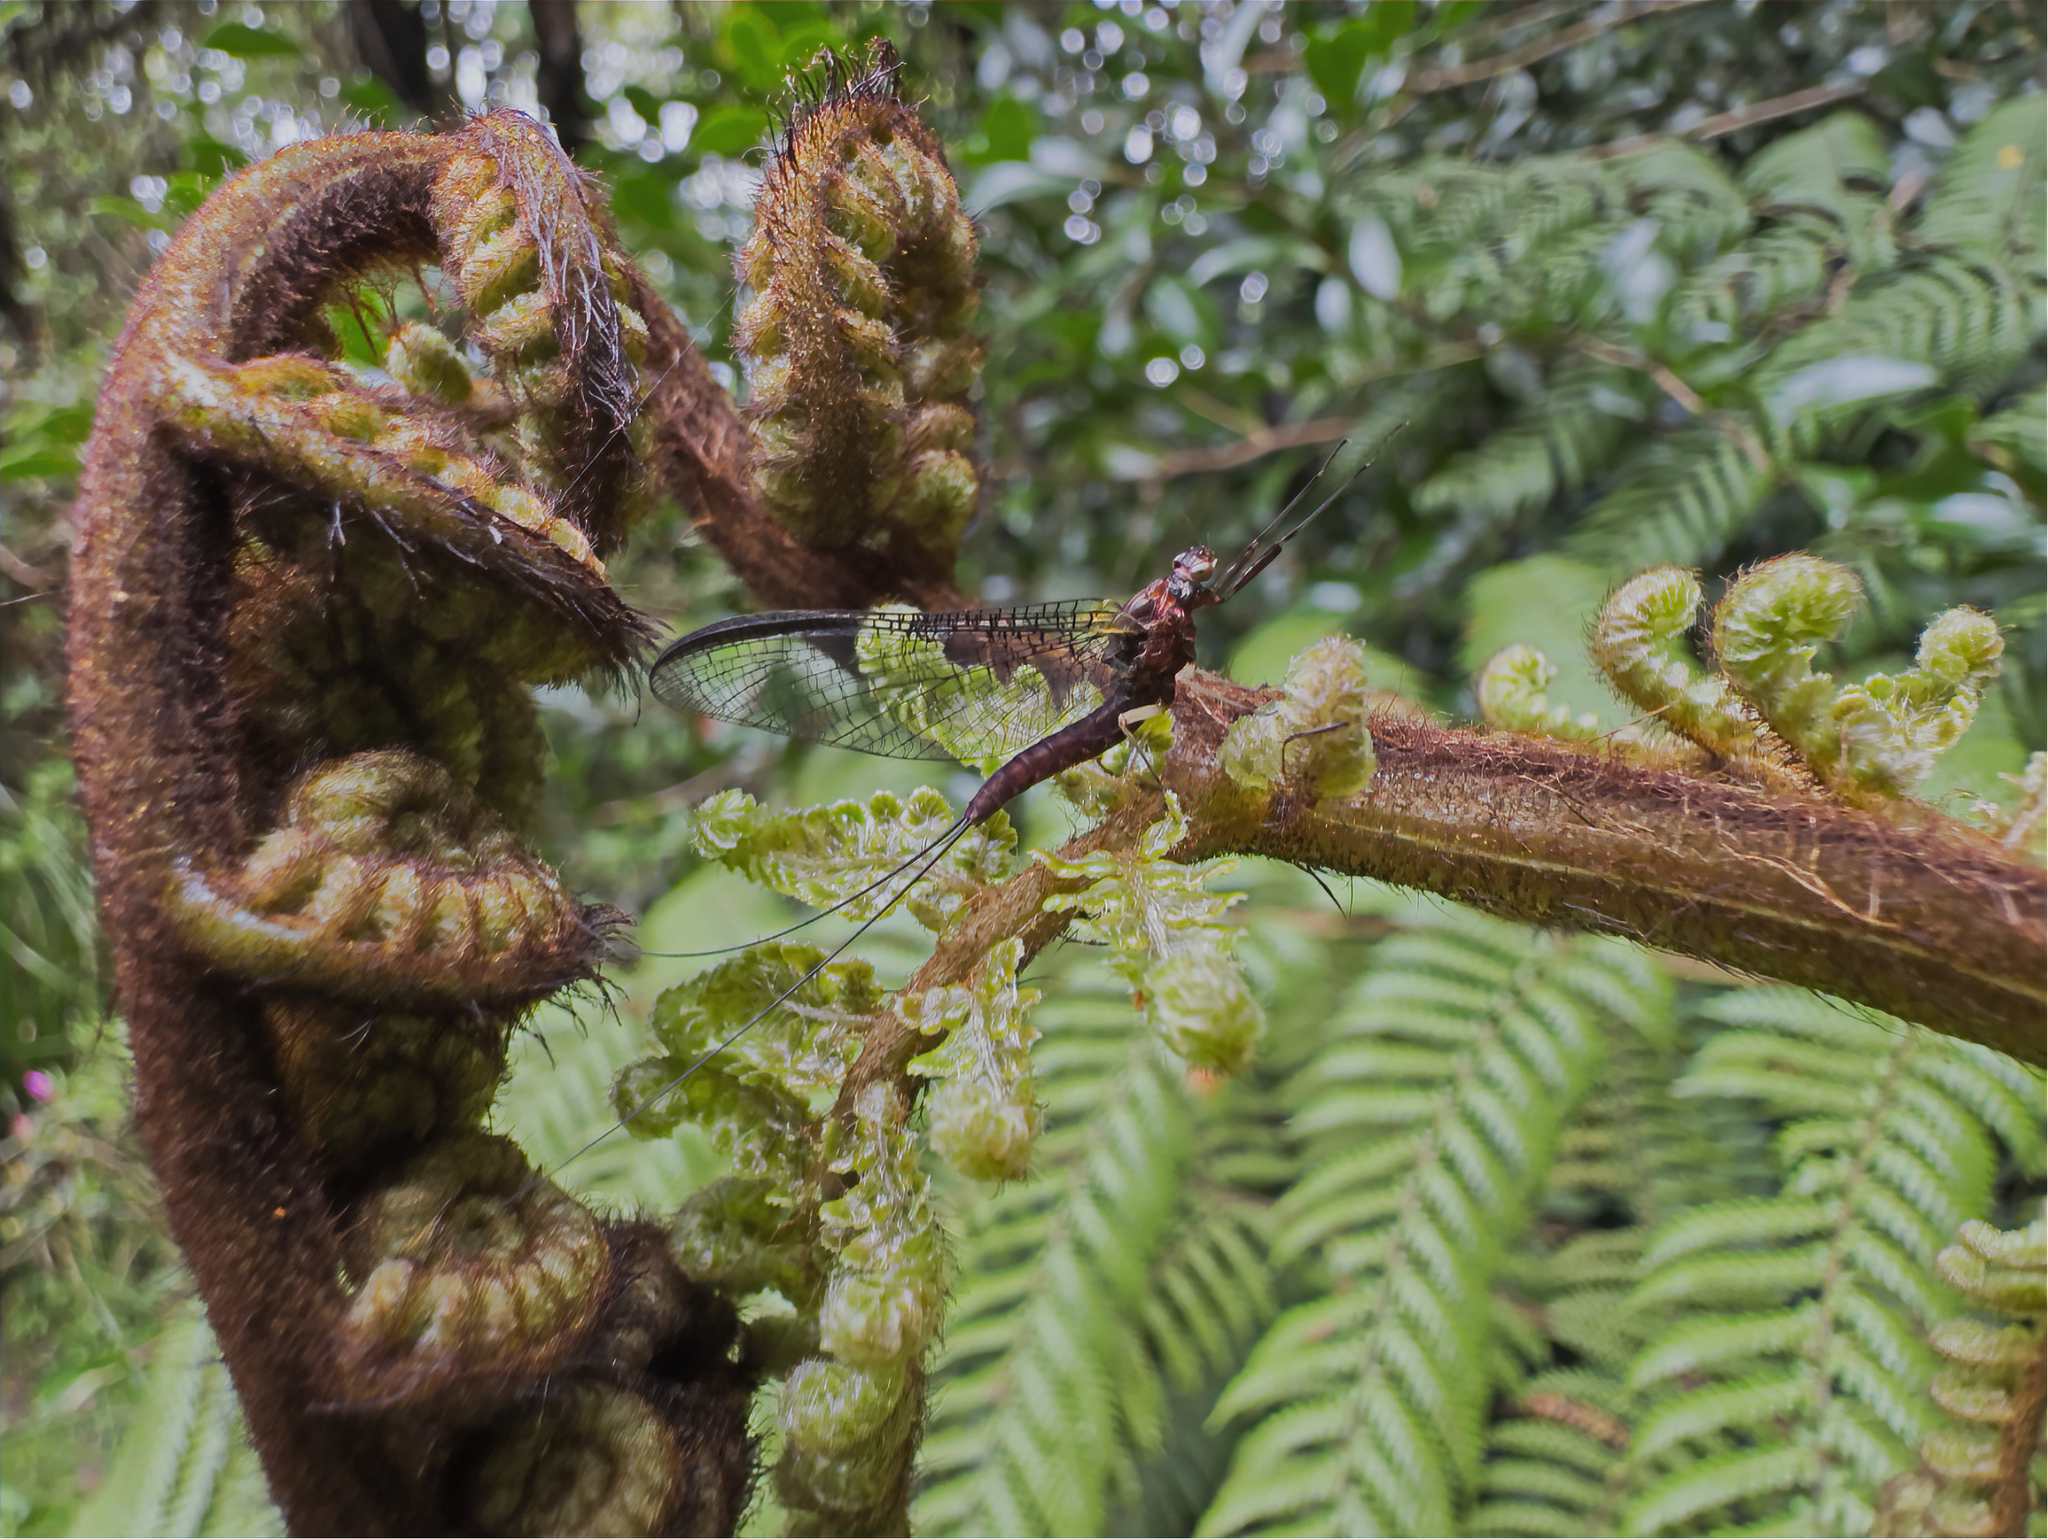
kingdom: Animalia
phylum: Arthropoda
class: Insecta
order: Ephemeroptera
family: Coloburiscidae
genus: Coloburiscus
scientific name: Coloburiscus humeralis
